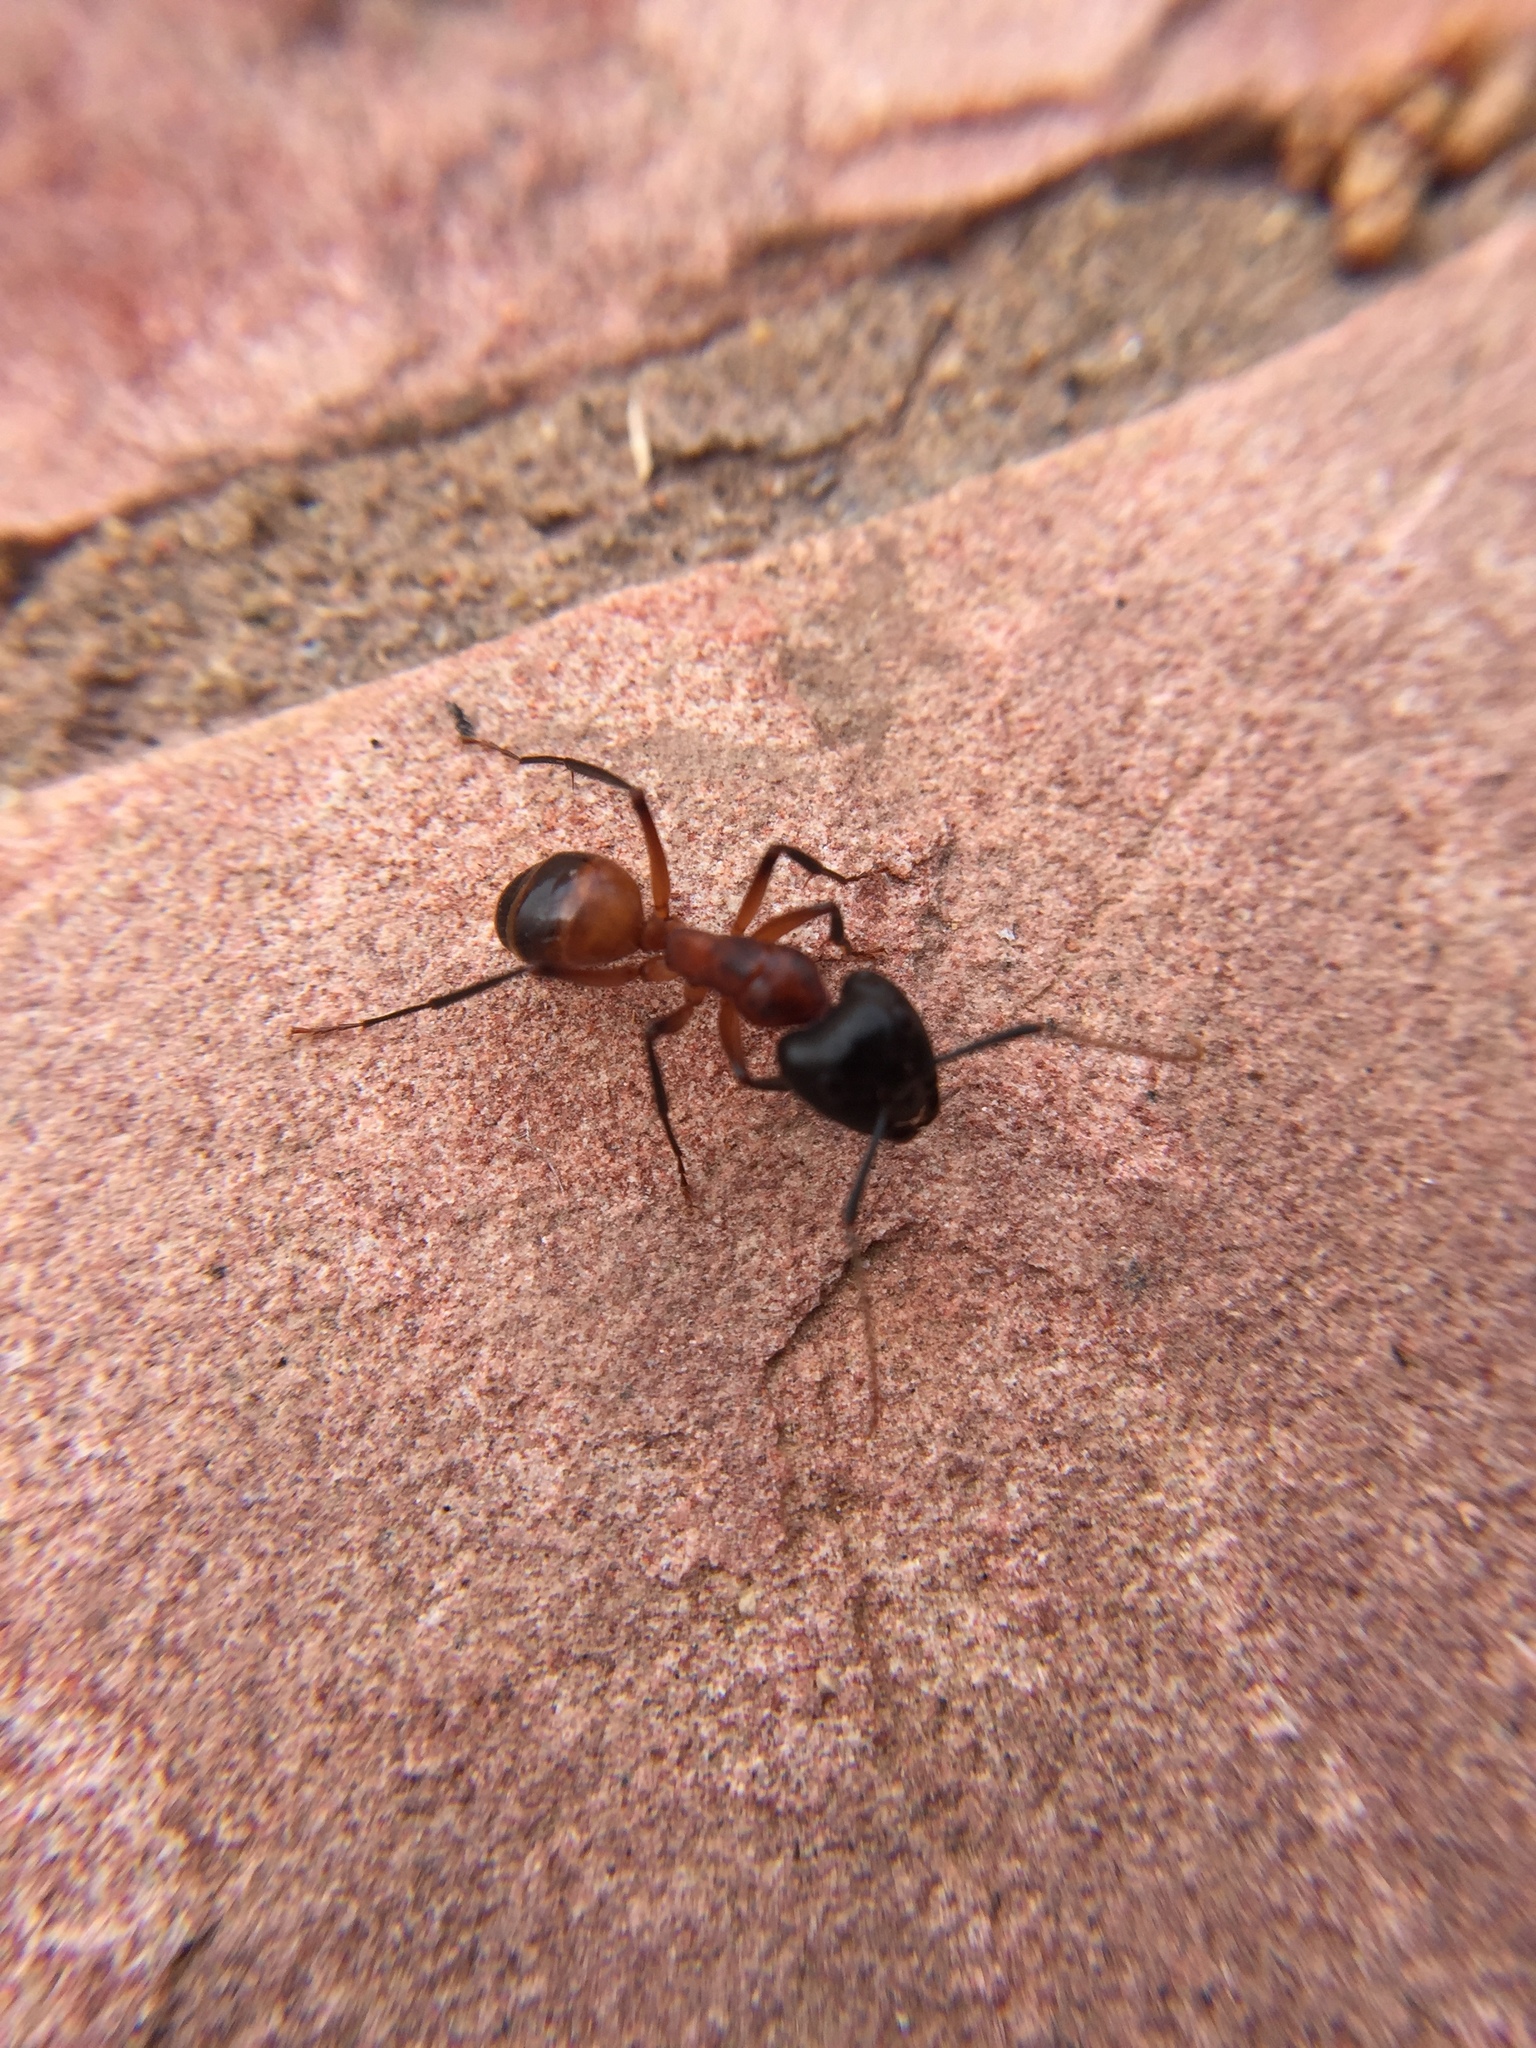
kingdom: Animalia
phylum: Arthropoda
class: Insecta
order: Hymenoptera
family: Formicidae
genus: Camponotus
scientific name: Camponotus ocreatus
